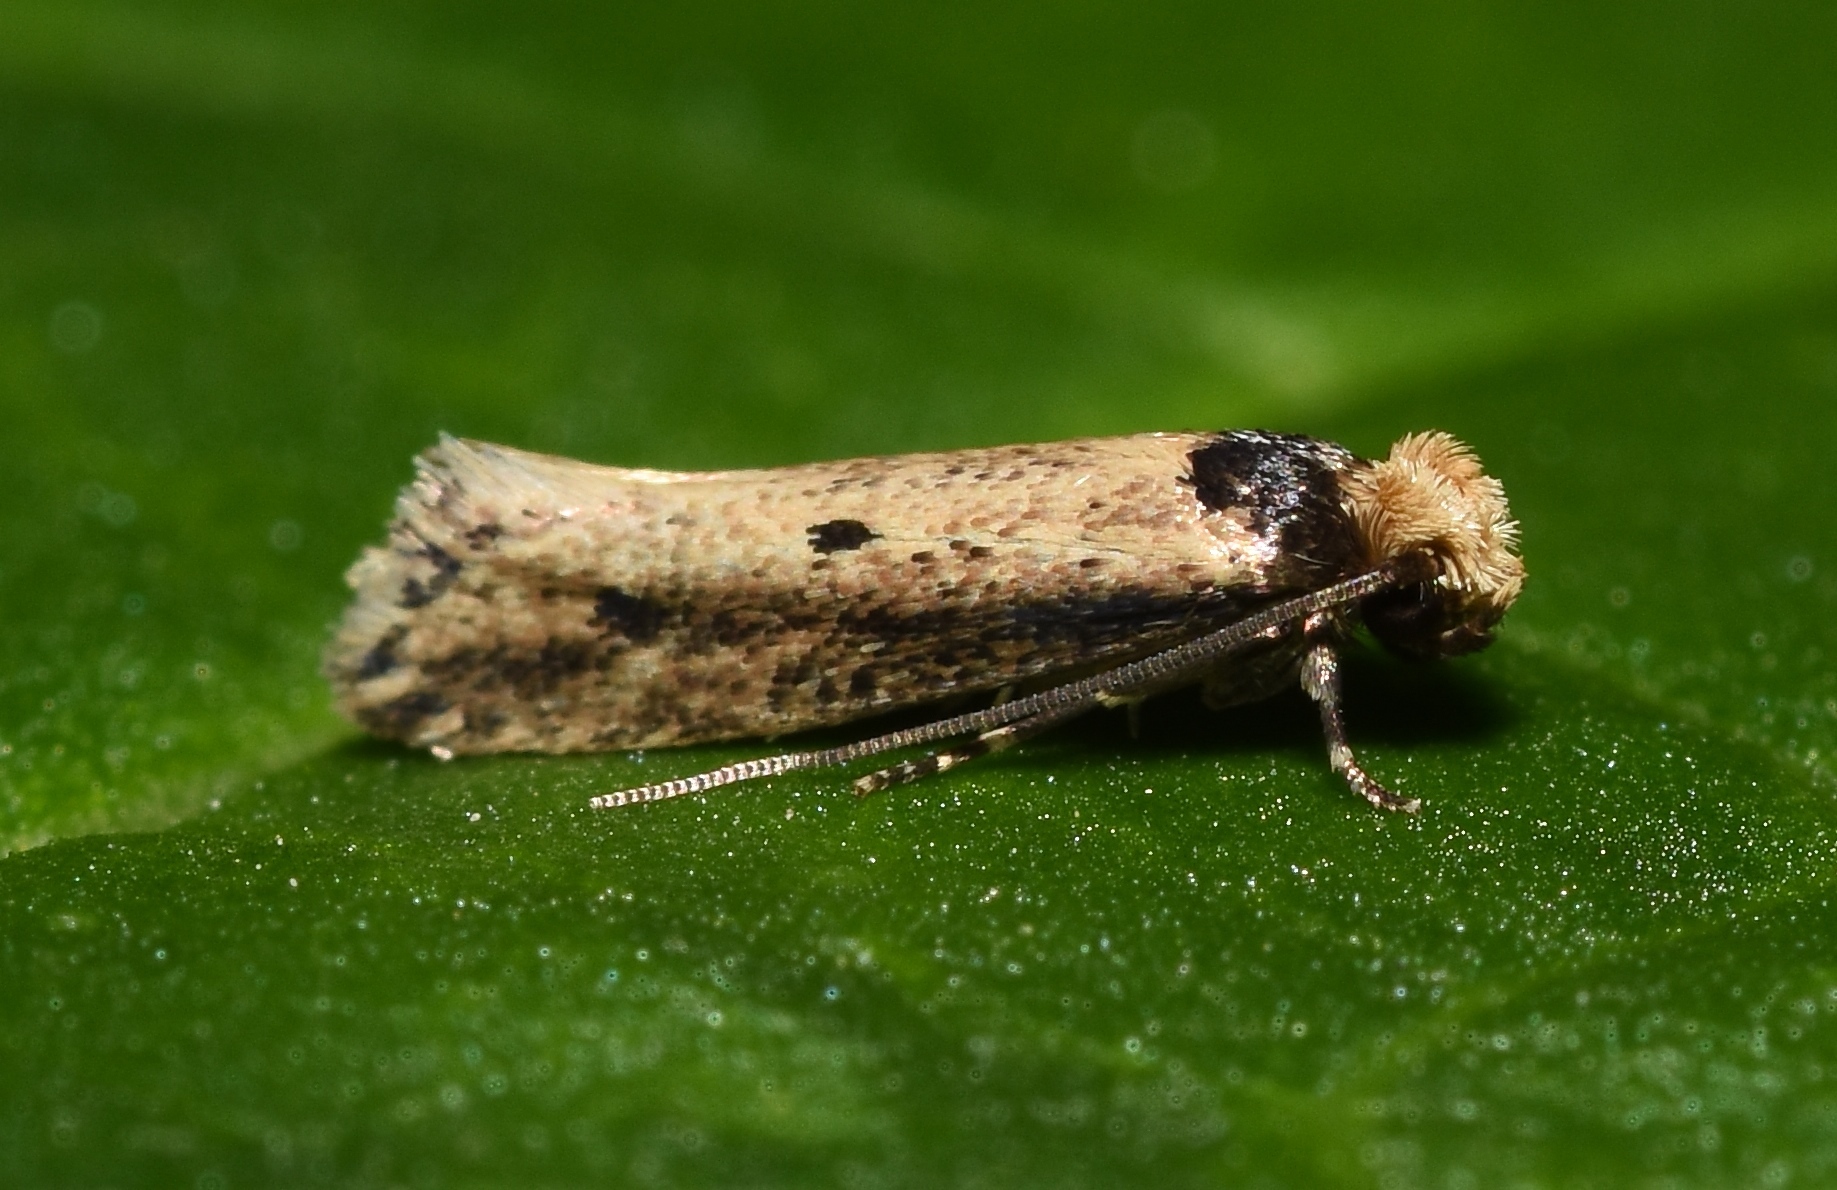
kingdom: Animalia
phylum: Arthropoda
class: Insecta
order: Lepidoptera
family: Tineidae
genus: Tinea
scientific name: Tinea apicimaculella
